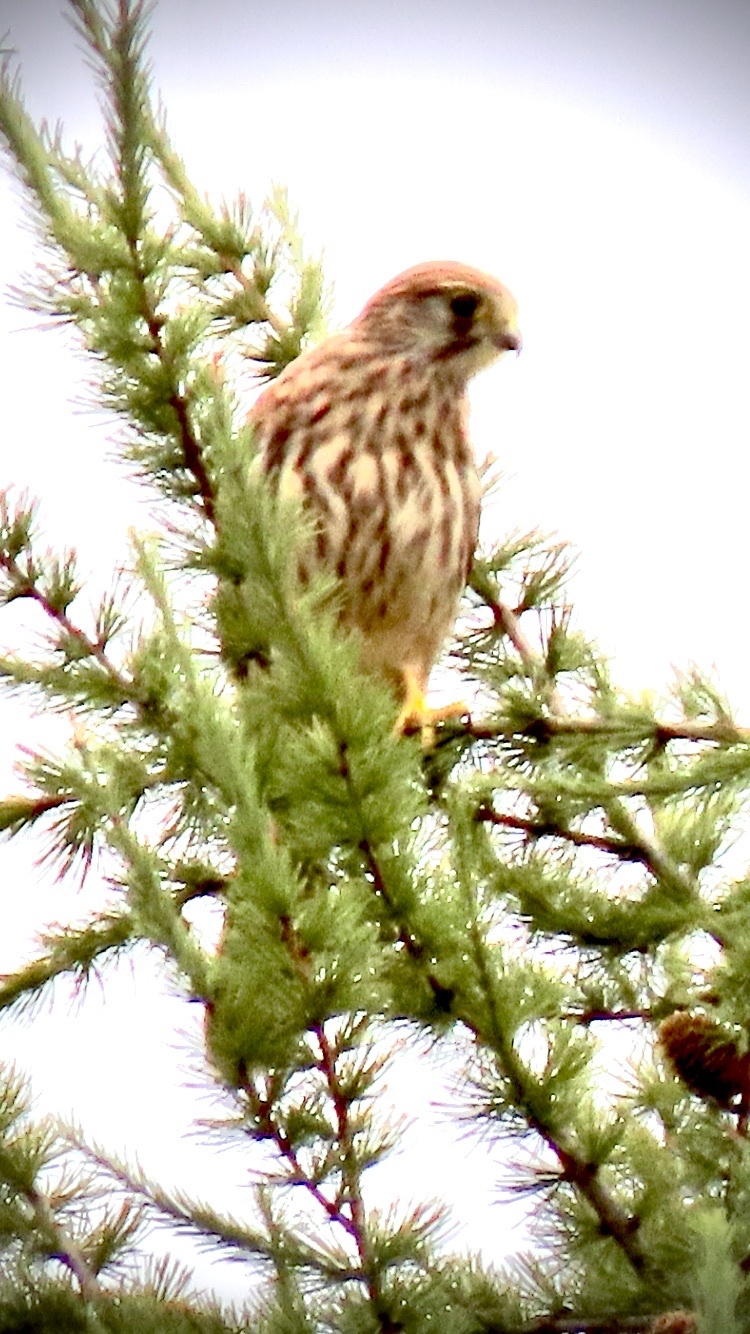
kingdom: Animalia
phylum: Chordata
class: Aves
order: Falconiformes
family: Falconidae
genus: Falco
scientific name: Falco tinnunculus
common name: Common kestrel
